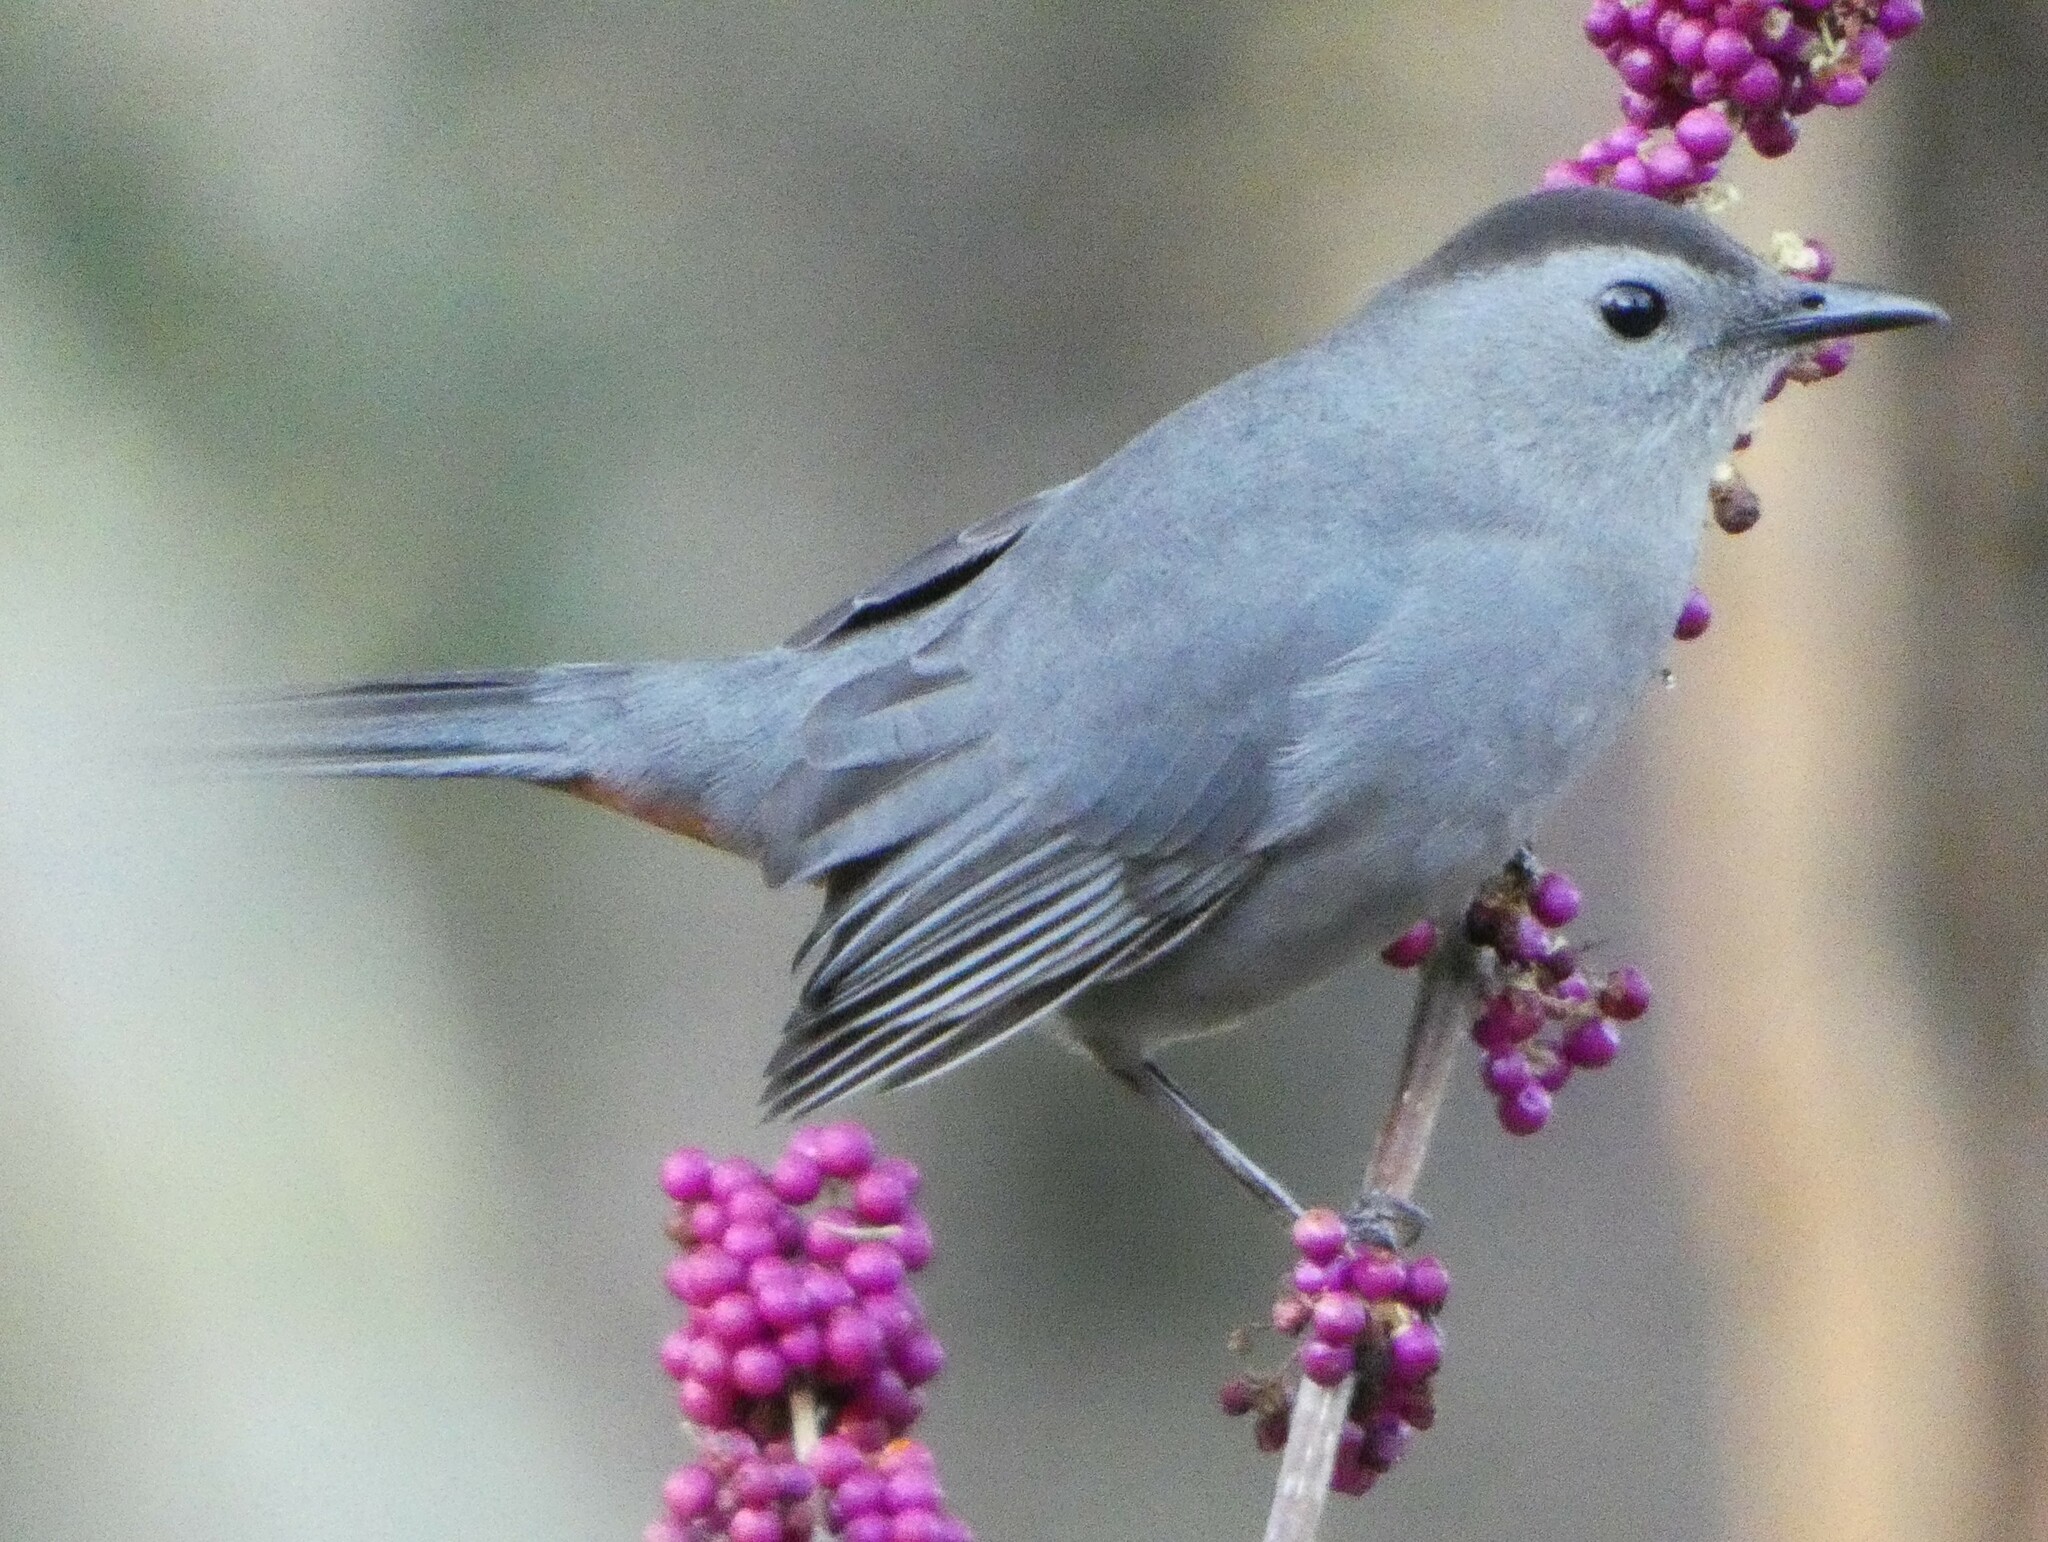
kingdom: Animalia
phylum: Chordata
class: Aves
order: Passeriformes
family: Mimidae
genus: Dumetella
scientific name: Dumetella carolinensis
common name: Gray catbird
